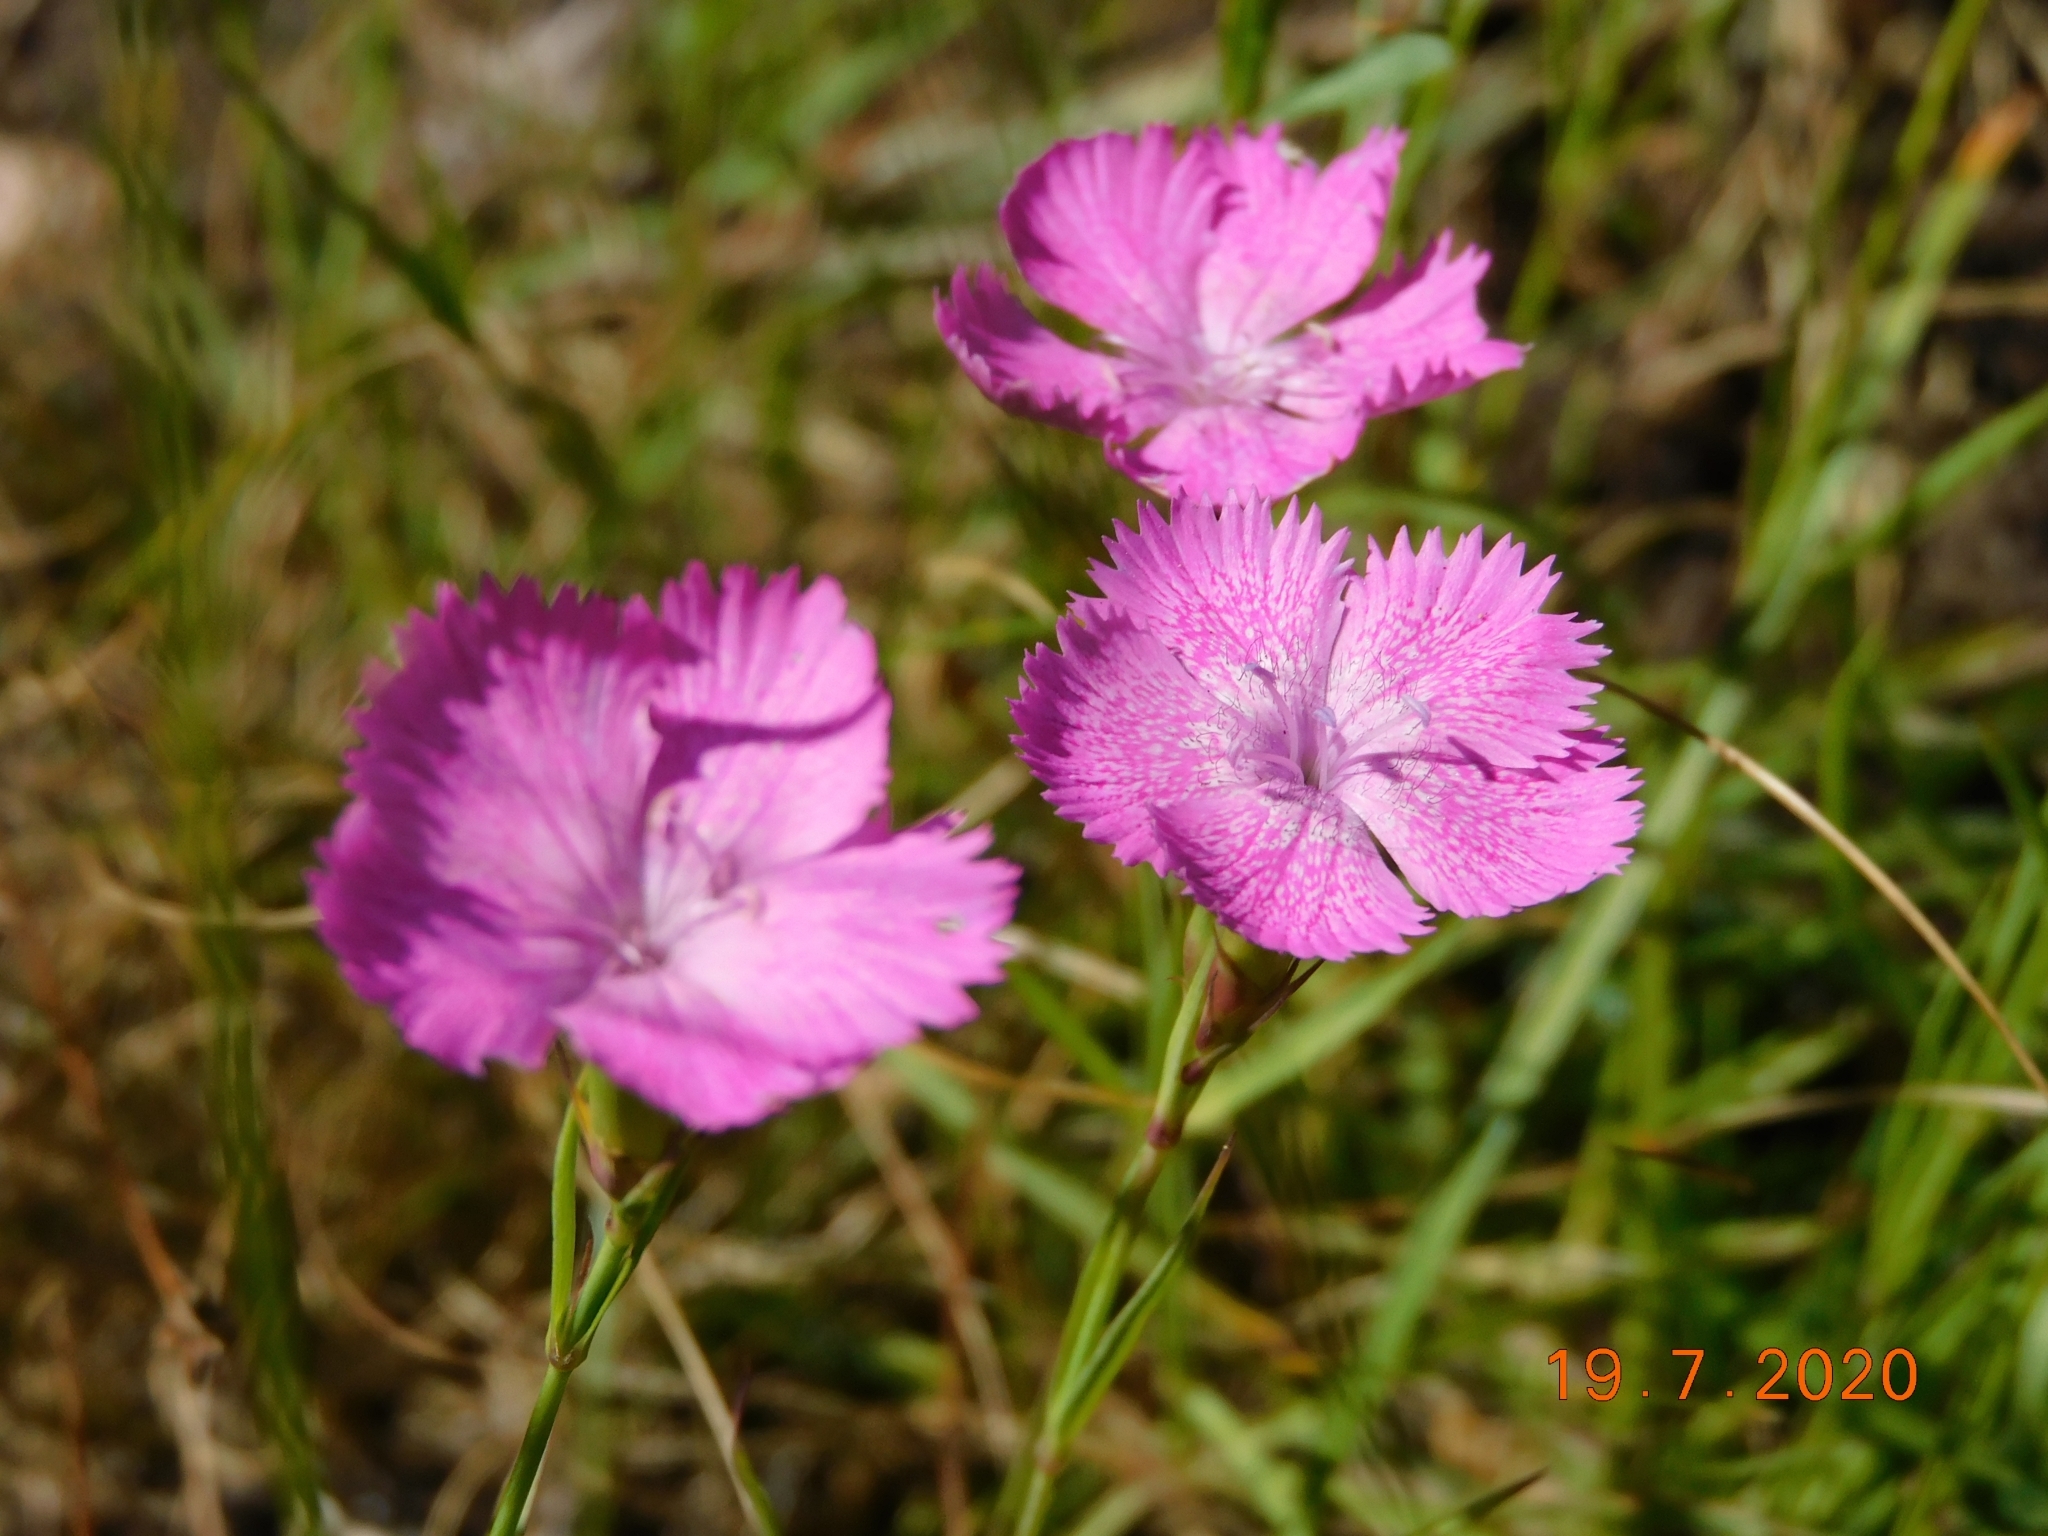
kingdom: Plantae
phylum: Tracheophyta
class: Magnoliopsida
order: Caryophyllales
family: Caryophyllaceae
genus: Dianthus
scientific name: Dianthus seguieri
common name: Ragged pink
